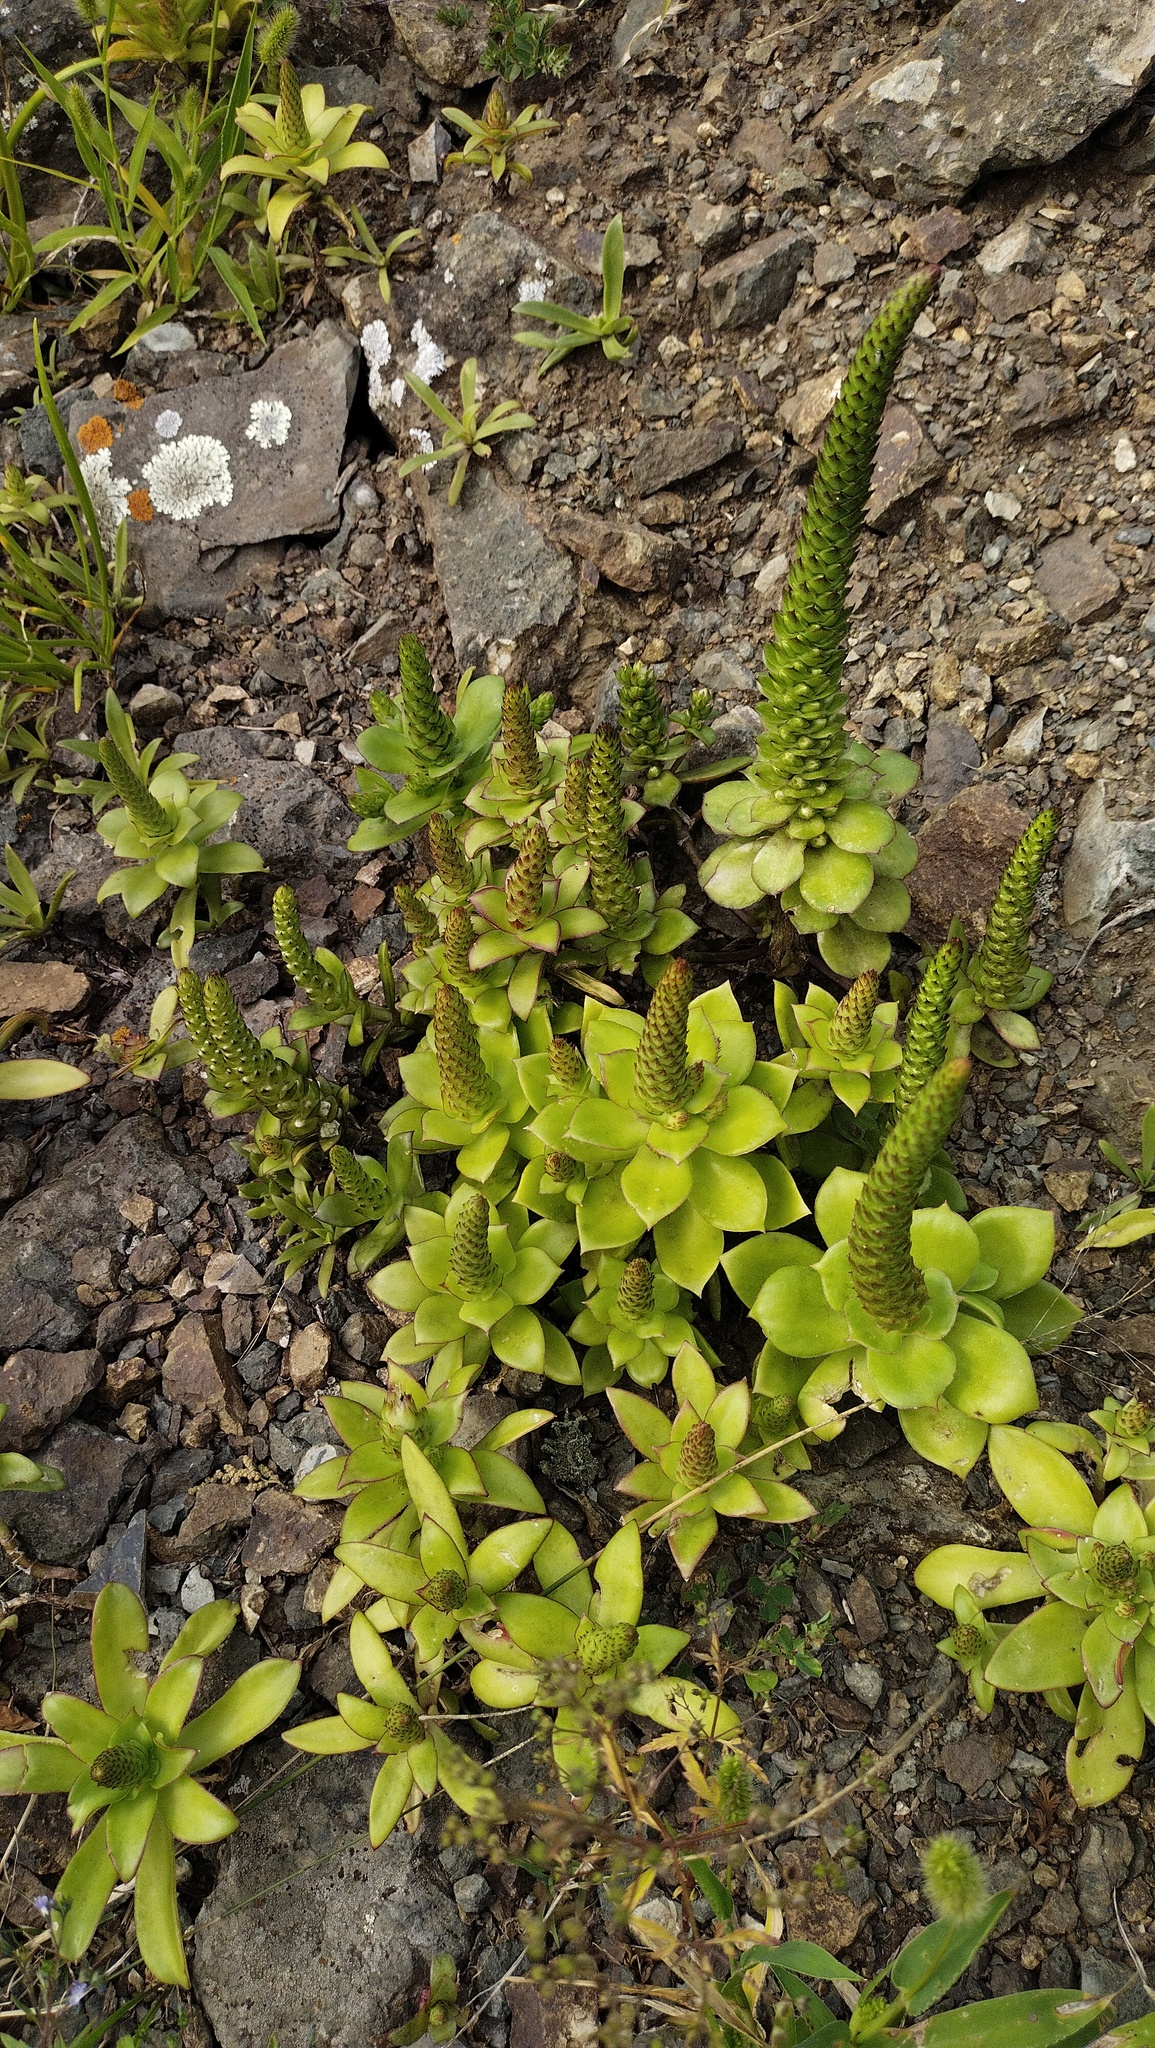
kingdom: Plantae
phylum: Tracheophyta
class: Magnoliopsida
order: Saxifragales
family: Crassulaceae
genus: Orostachys
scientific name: Orostachys maximowiczii
